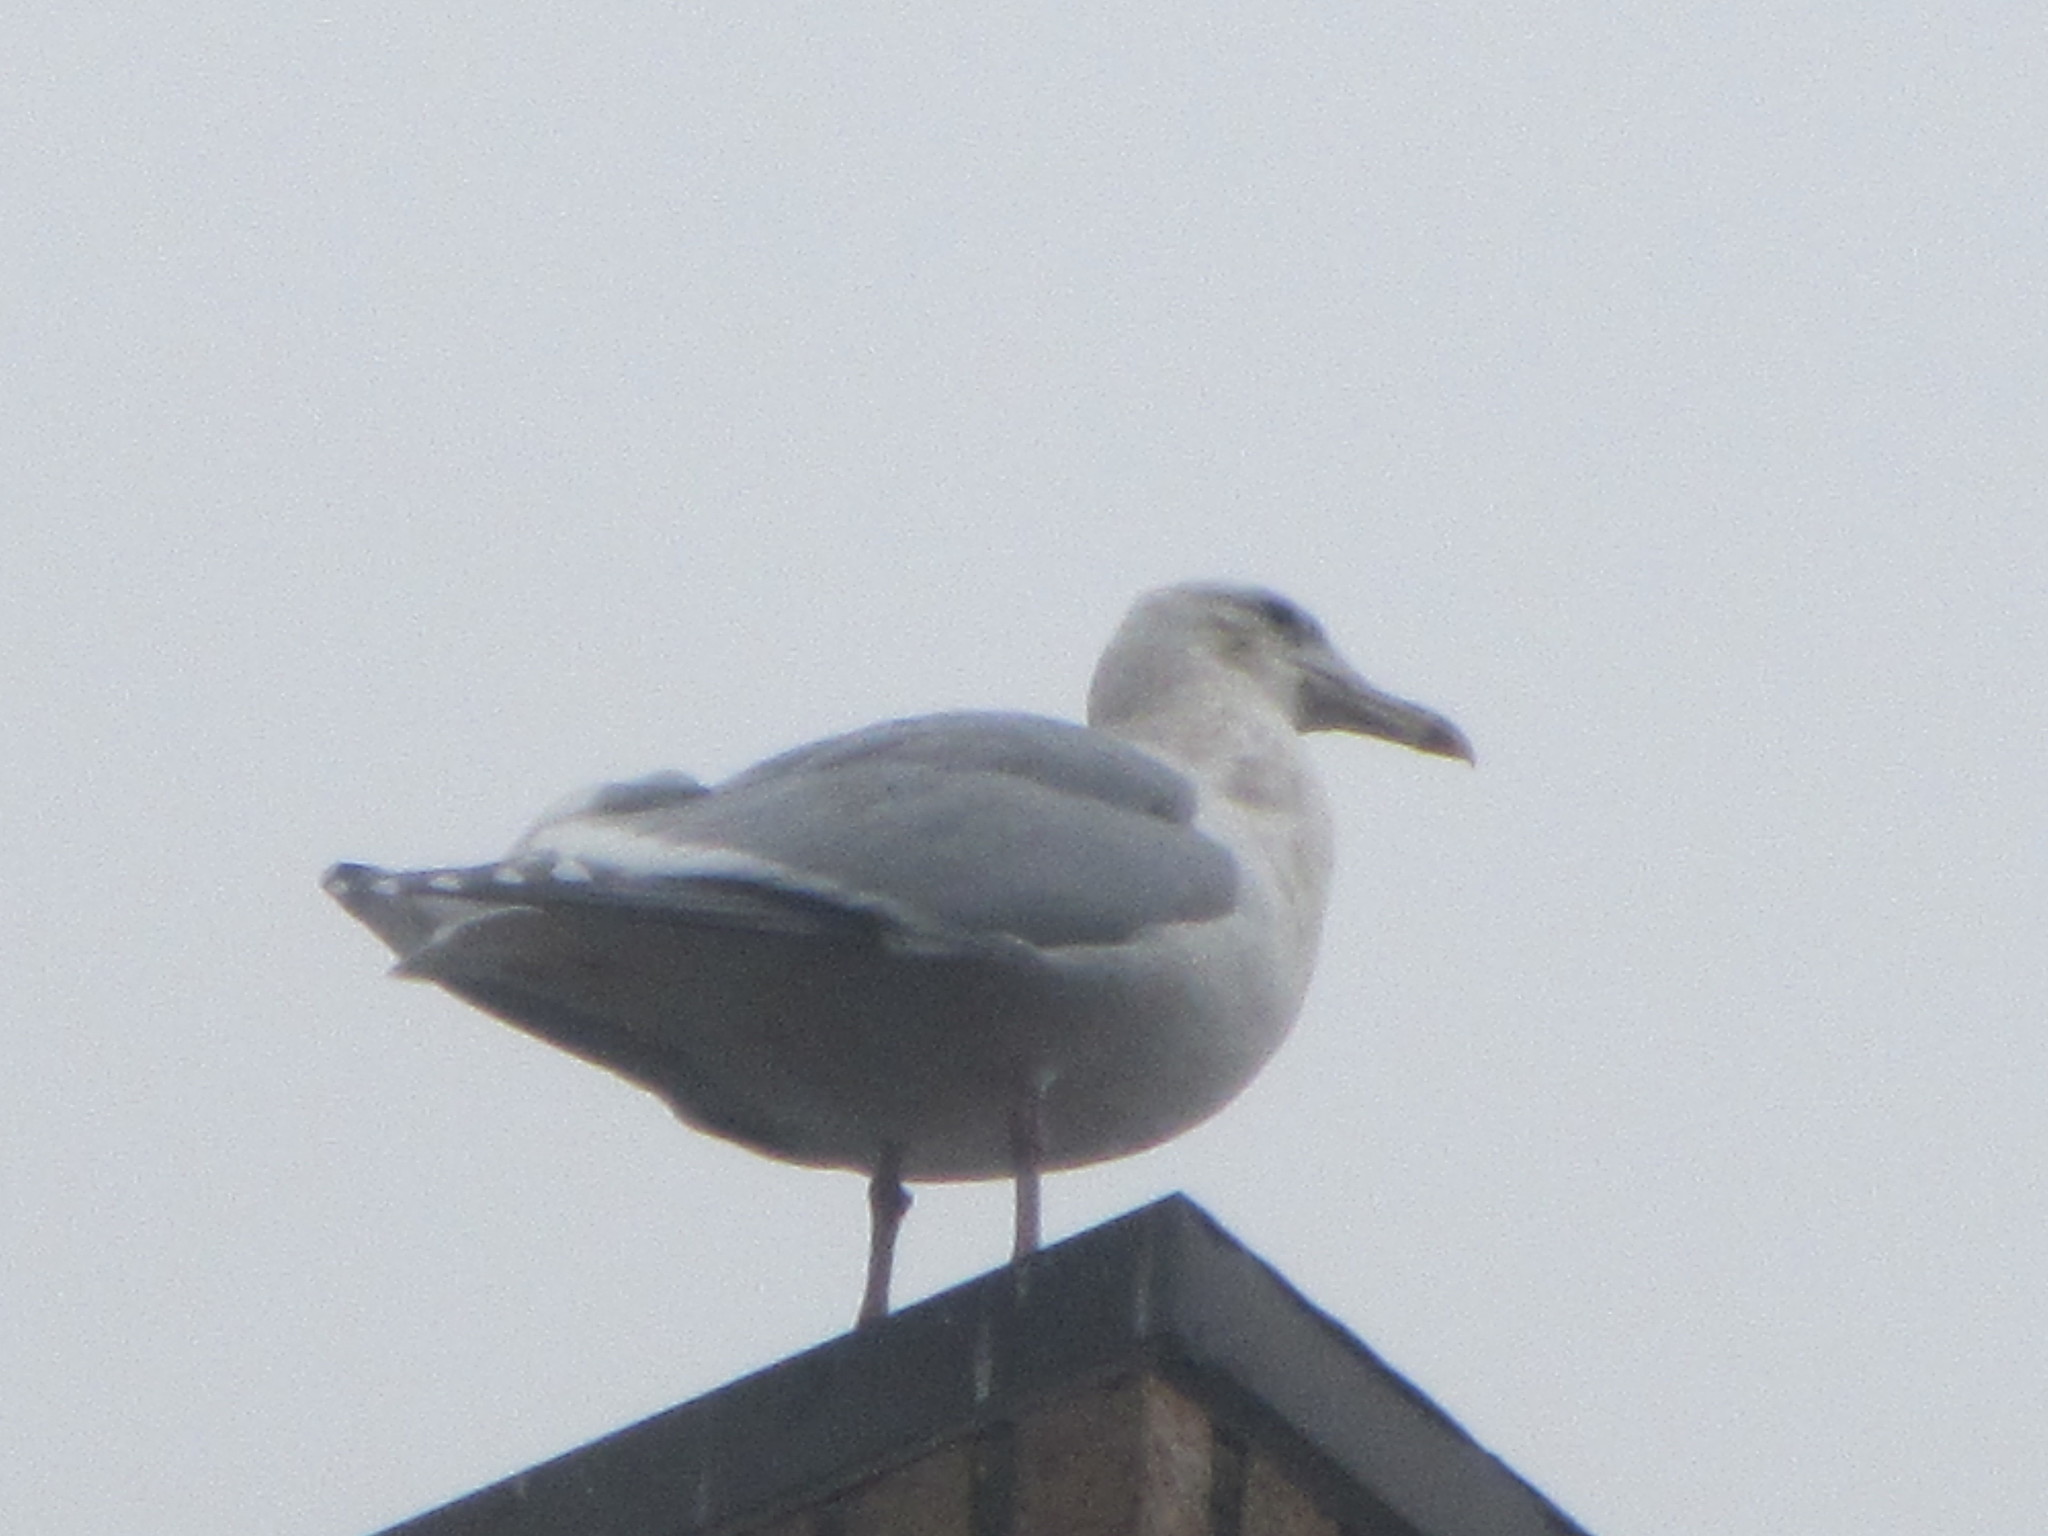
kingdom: Animalia
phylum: Chordata
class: Aves
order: Charadriiformes
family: Laridae
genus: Larus
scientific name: Larus
